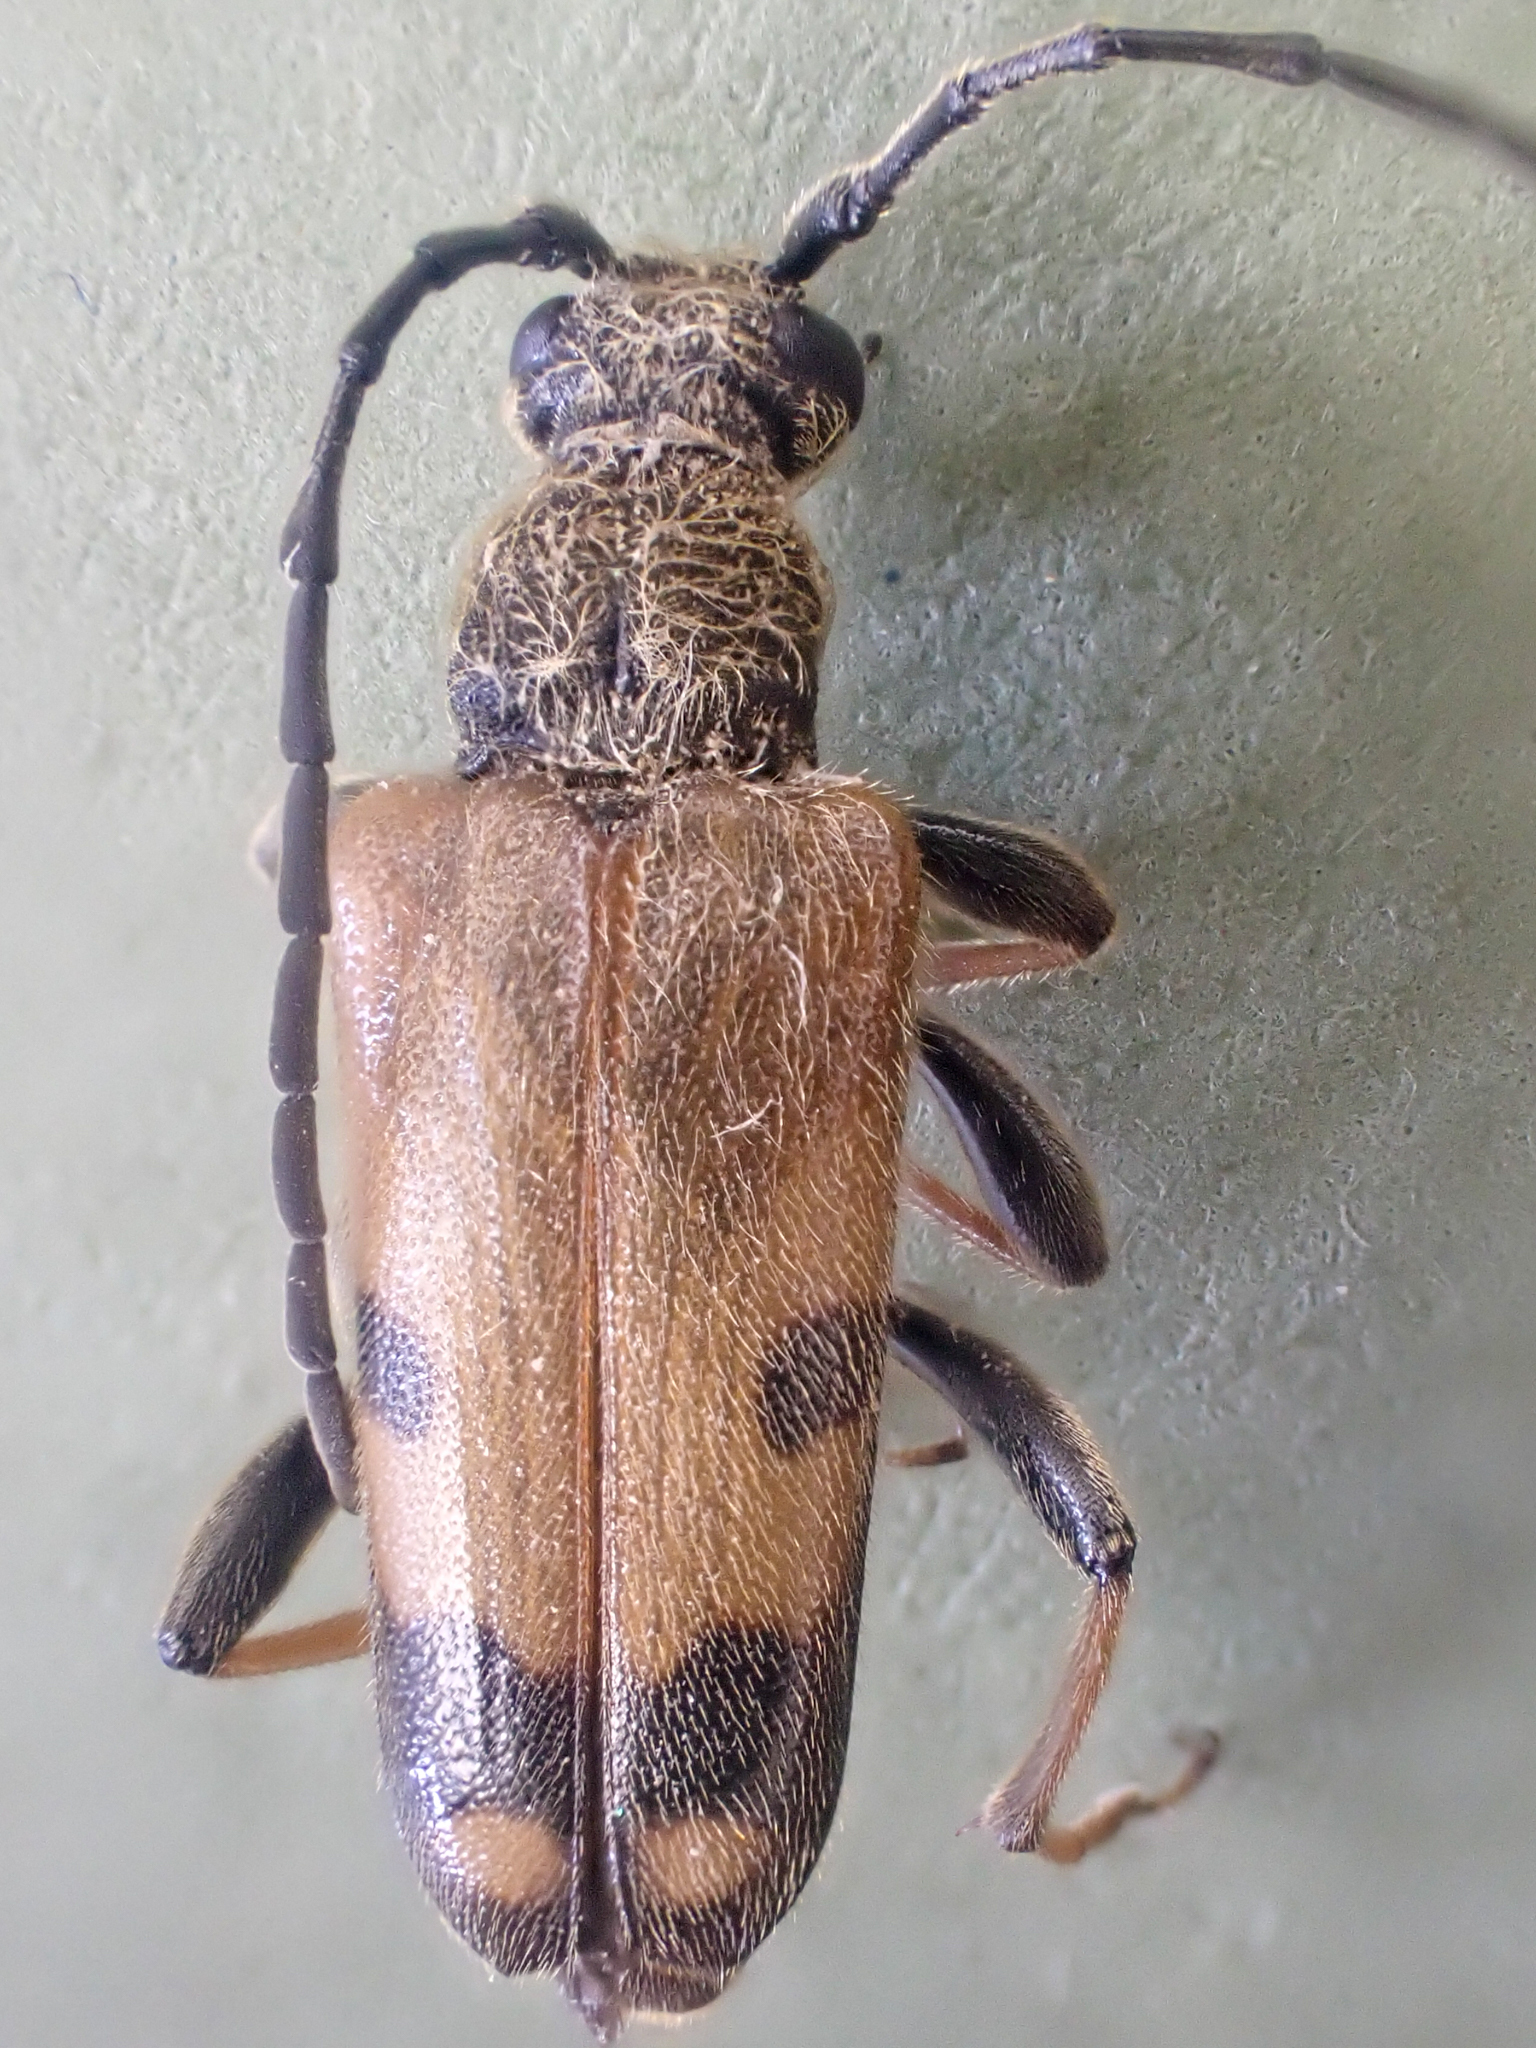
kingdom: Animalia
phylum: Arthropoda
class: Insecta
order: Coleoptera
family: Cerambycidae
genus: Xestoleptura
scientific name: Xestoleptura tibialis
